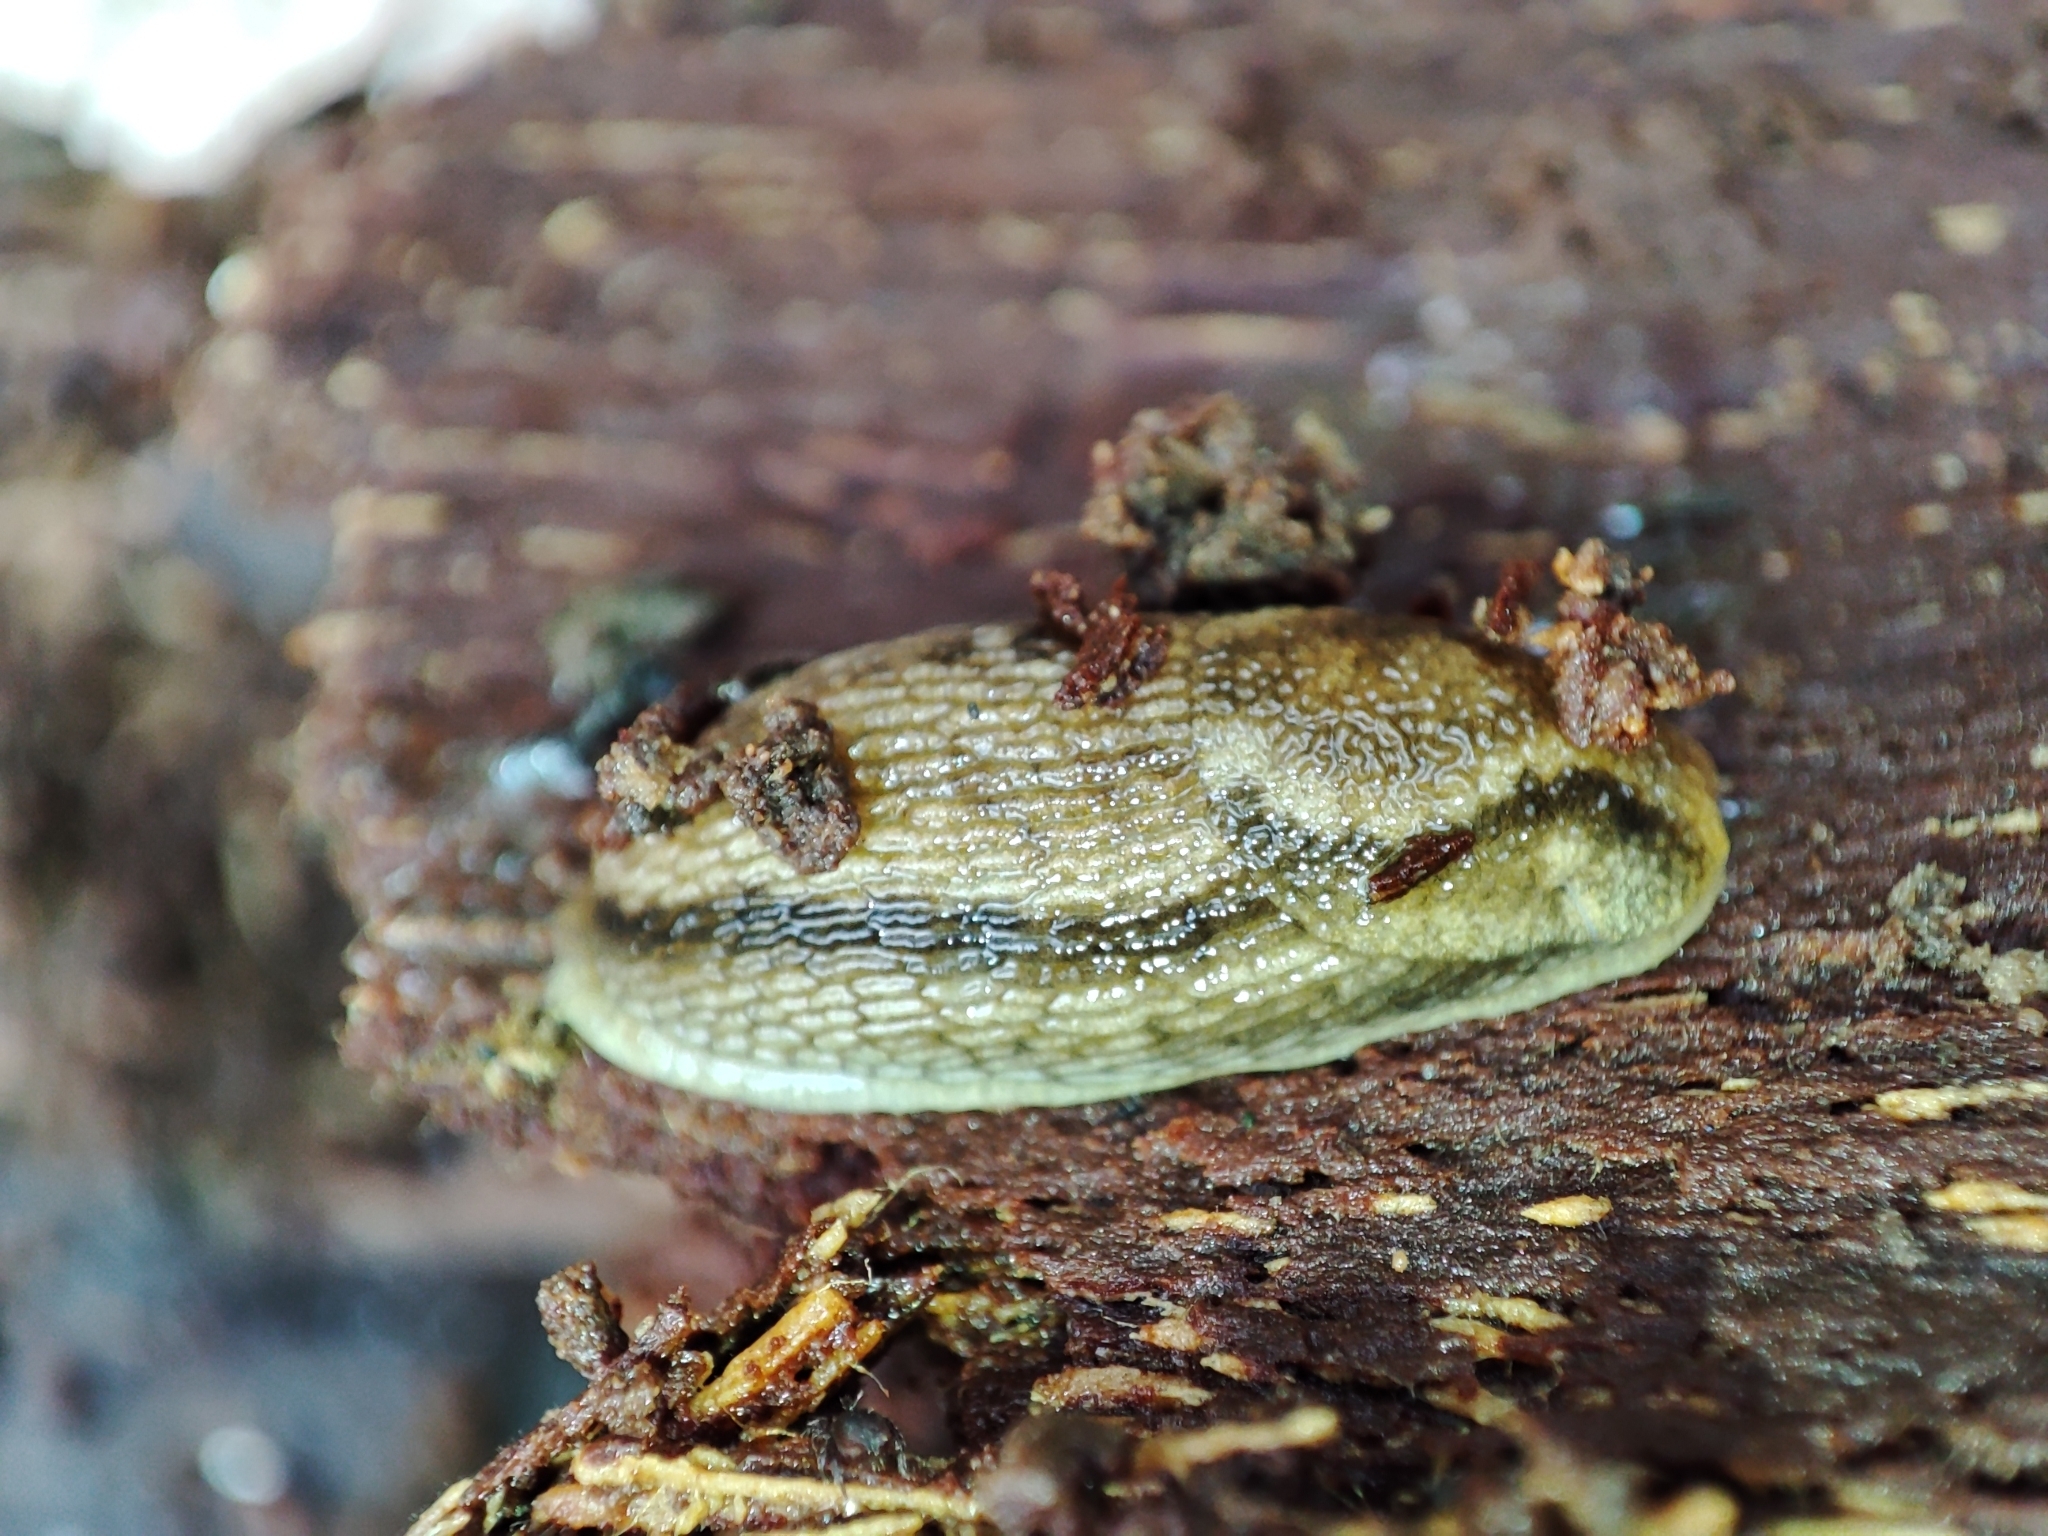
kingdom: Animalia
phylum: Mollusca
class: Gastropoda
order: Stylommatophora
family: Arionidae
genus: Arion
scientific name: Arion fuscus
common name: Northern dusky slug
